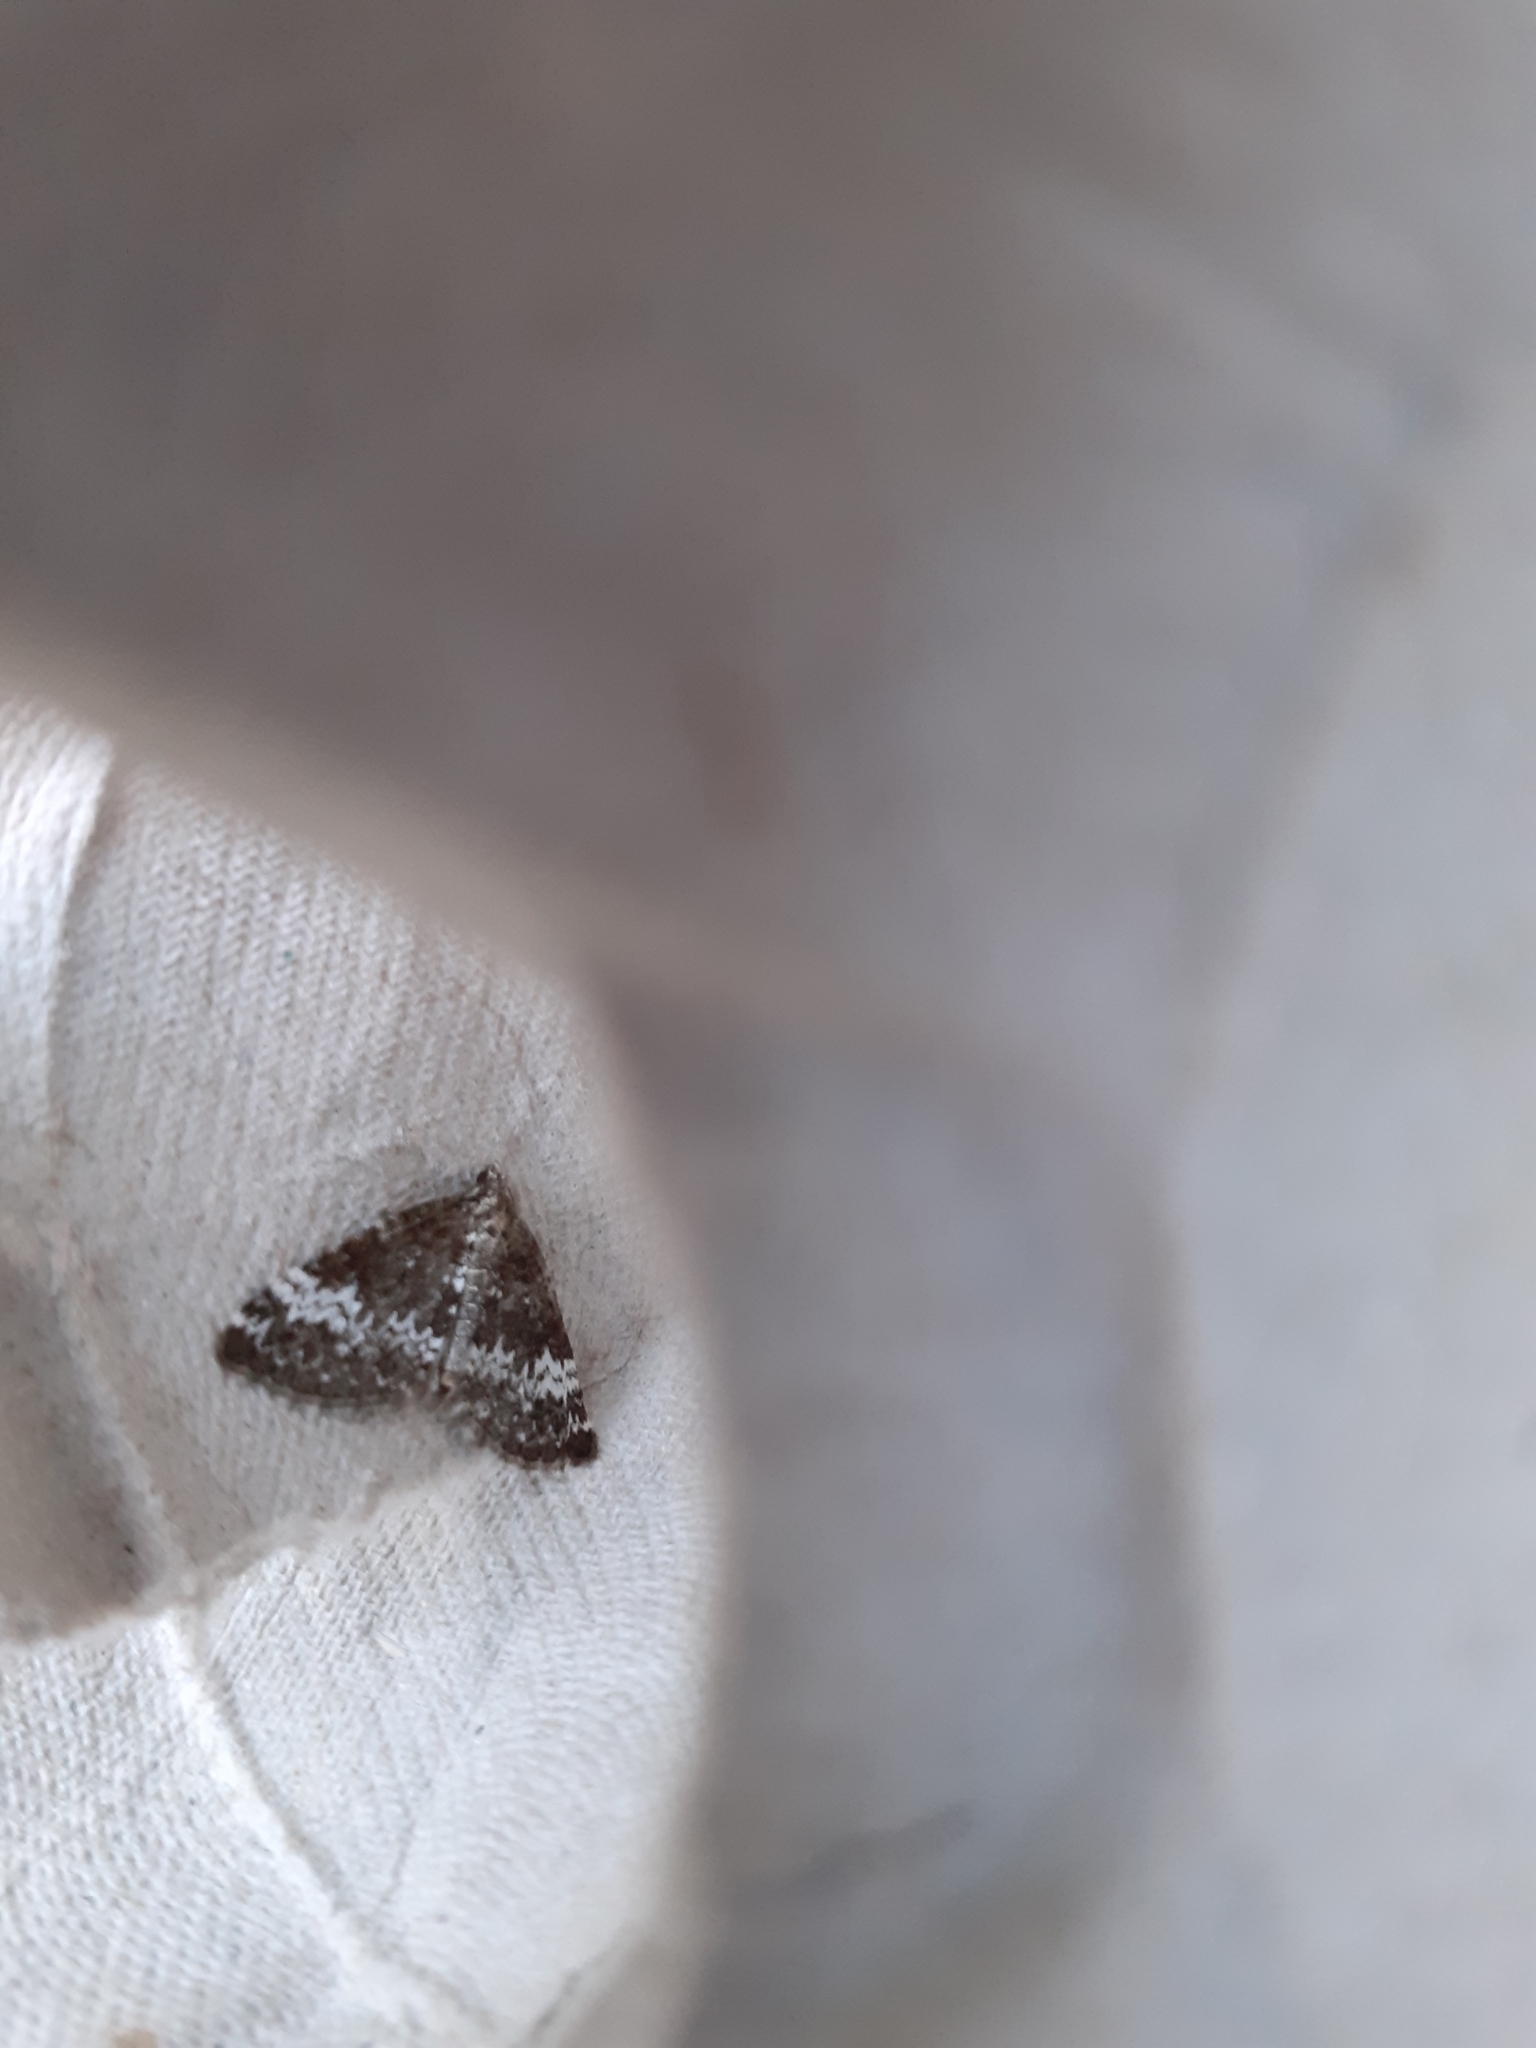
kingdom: Animalia
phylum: Arthropoda
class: Insecta
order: Lepidoptera
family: Geometridae
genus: Perizoma
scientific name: Perizoma alchemillata
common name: Small rivulet
